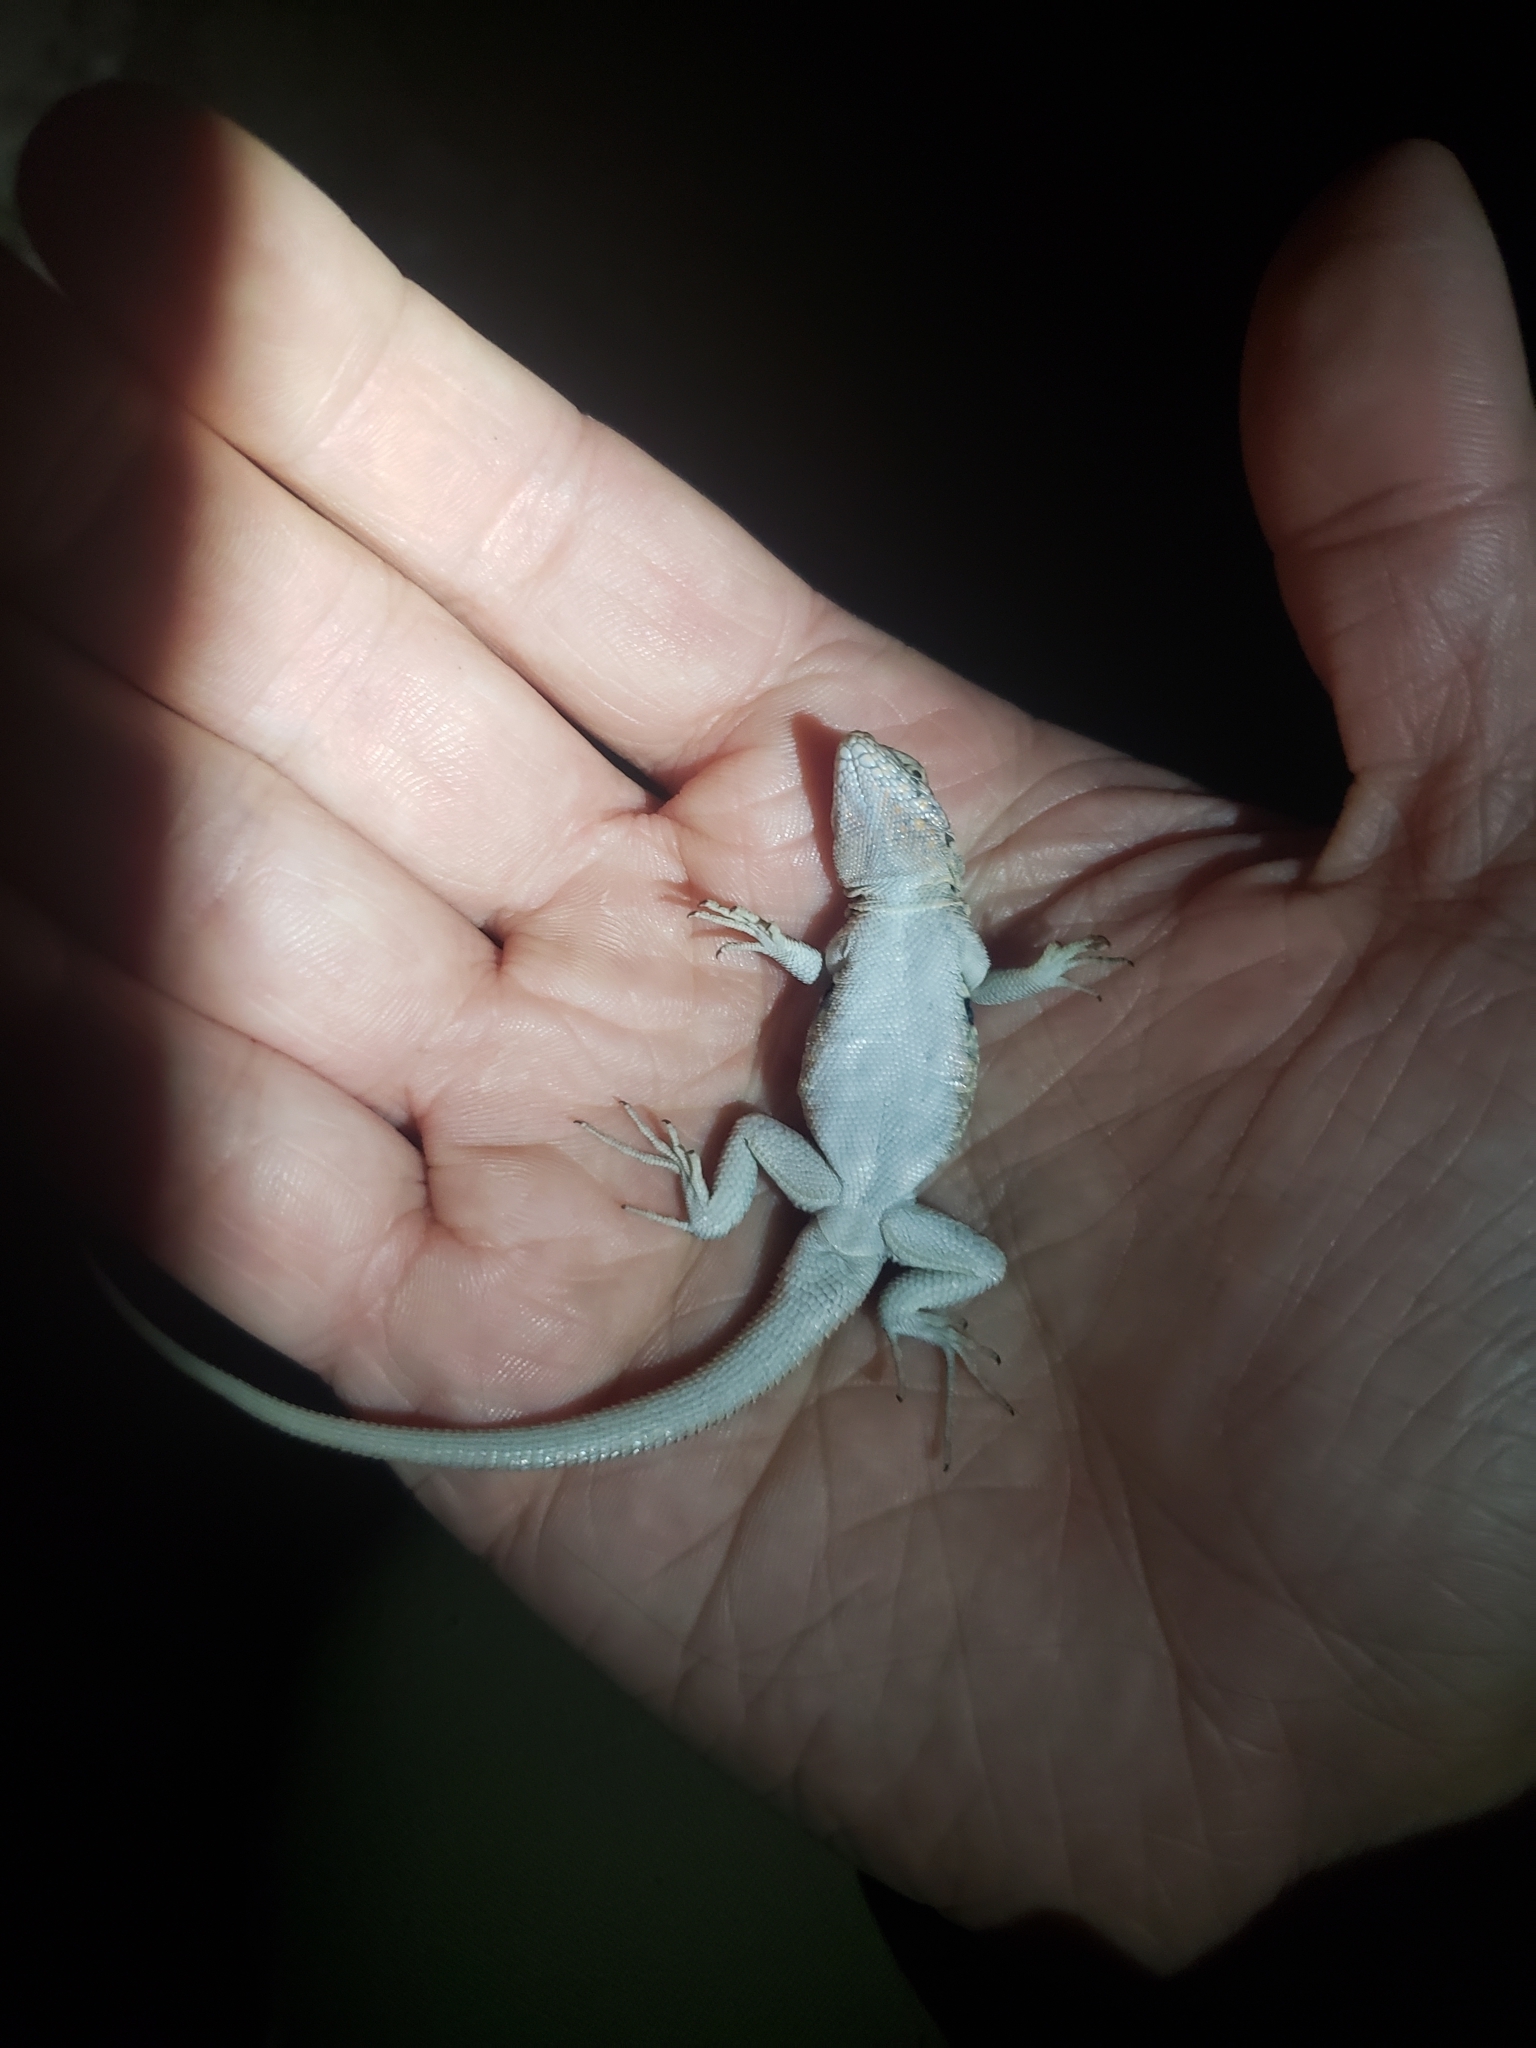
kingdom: Animalia
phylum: Chordata
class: Squamata
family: Phrynosomatidae
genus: Uta
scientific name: Uta stansburiana
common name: Side-blotched lizard
